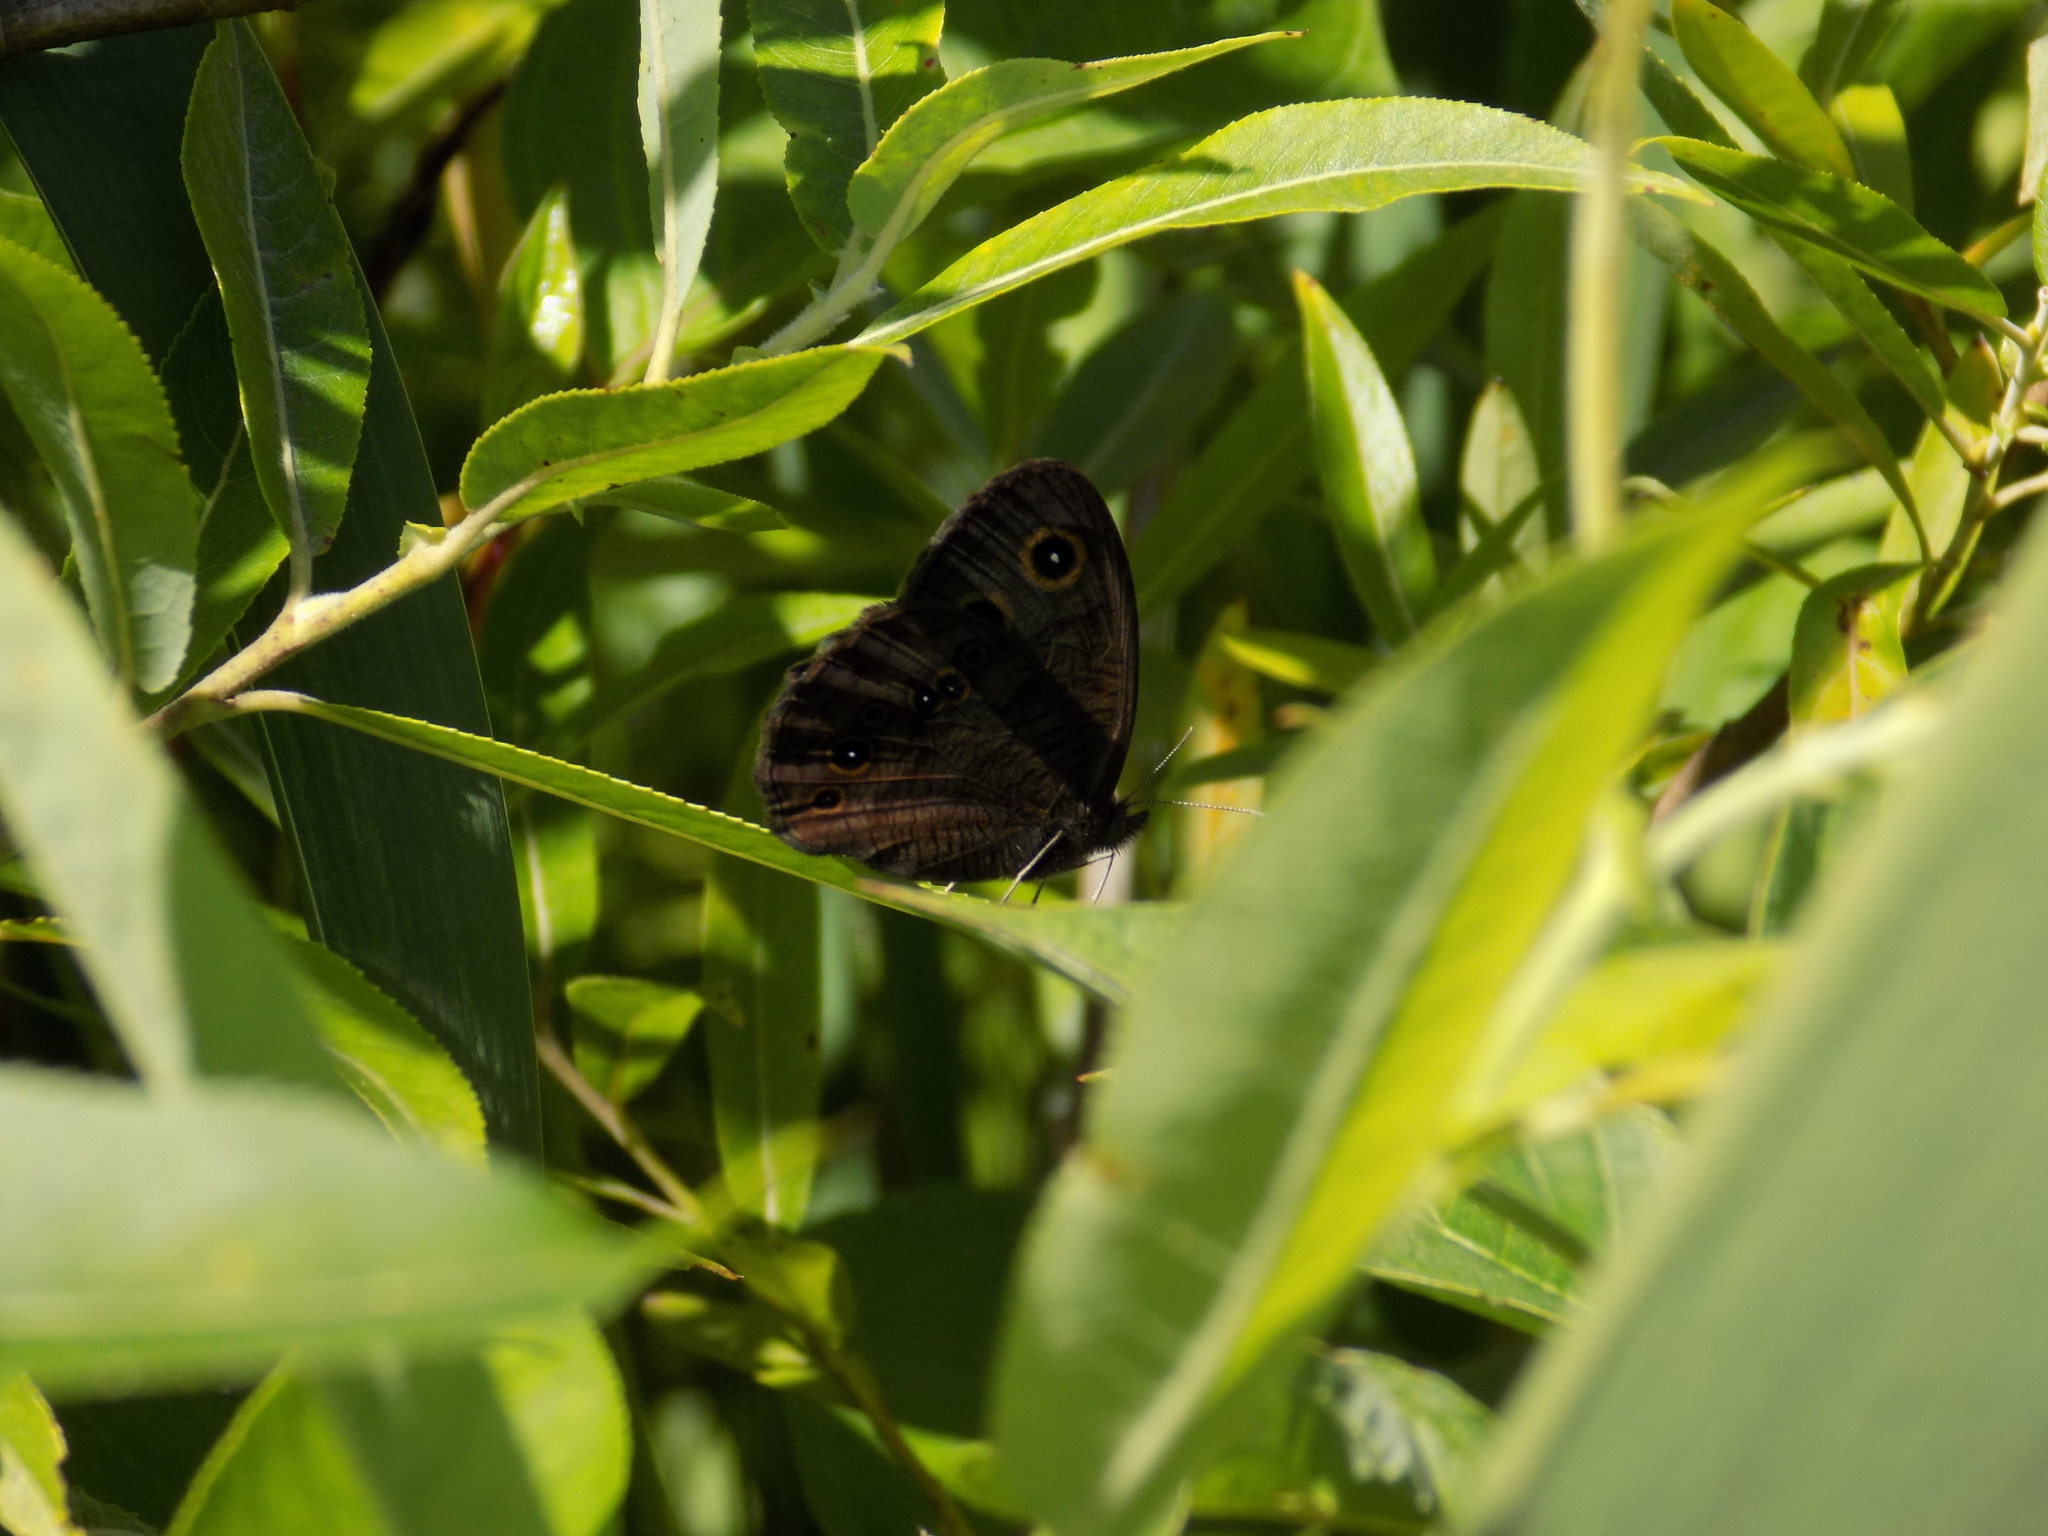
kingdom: Animalia
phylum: Arthropoda
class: Insecta
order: Lepidoptera
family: Nymphalidae
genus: Cercyonis
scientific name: Cercyonis pegala
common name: Common wood-nymph
